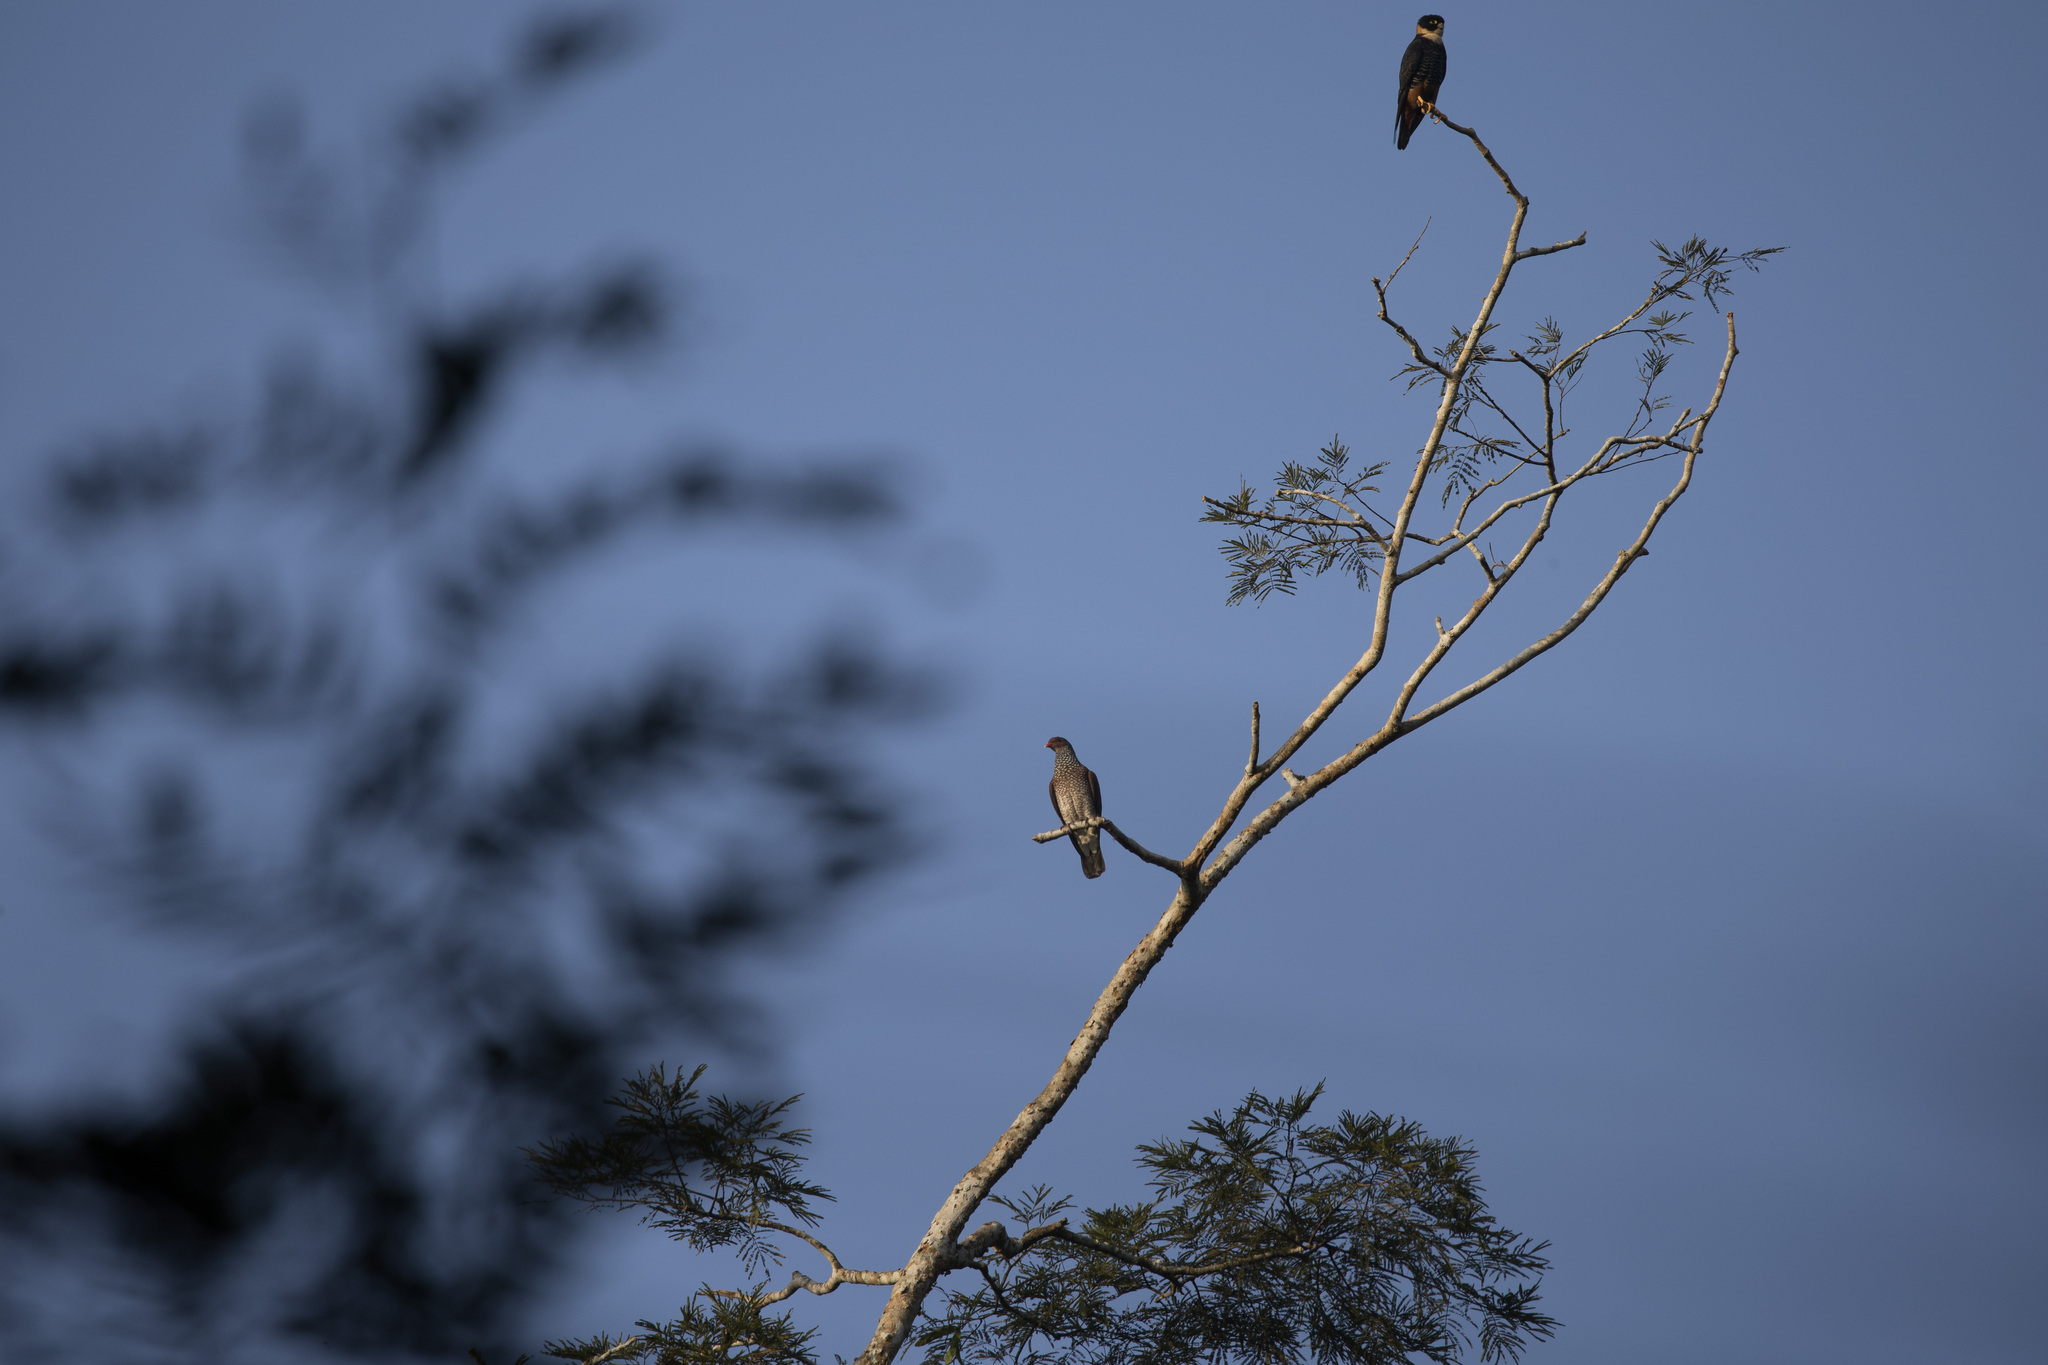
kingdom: Animalia
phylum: Chordata
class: Aves
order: Columbiformes
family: Columbidae
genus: Patagioenas
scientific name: Patagioenas speciosa
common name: Scaled pigeon
